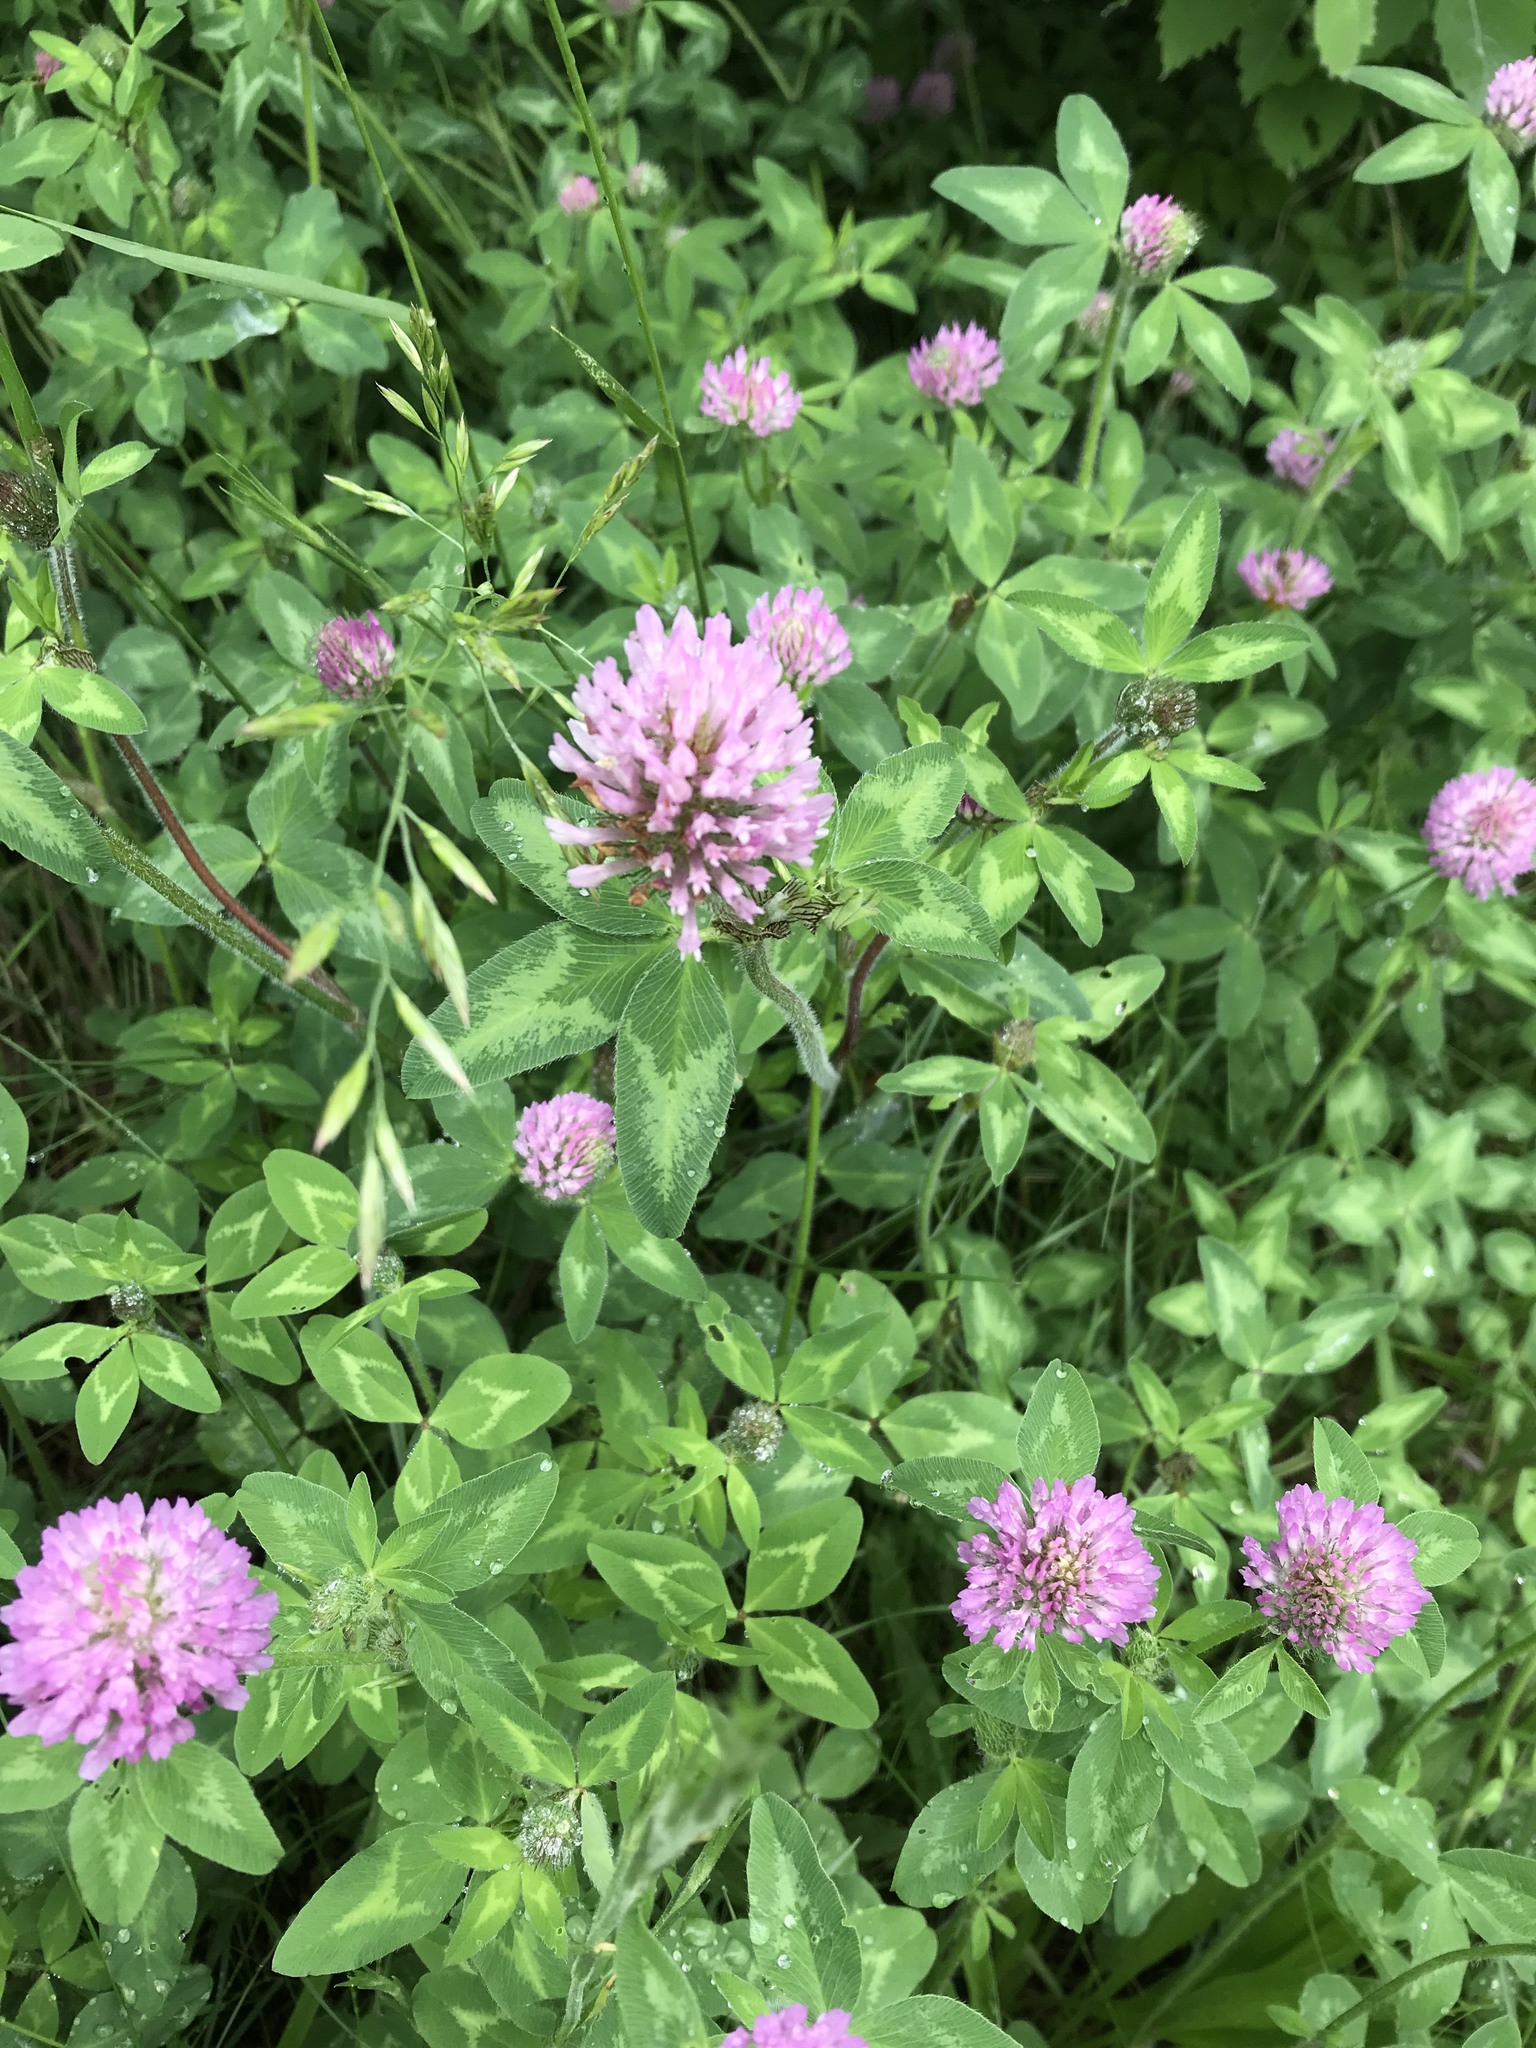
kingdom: Plantae
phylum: Tracheophyta
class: Magnoliopsida
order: Fabales
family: Fabaceae
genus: Trifolium
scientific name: Trifolium pratense
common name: Red clover
